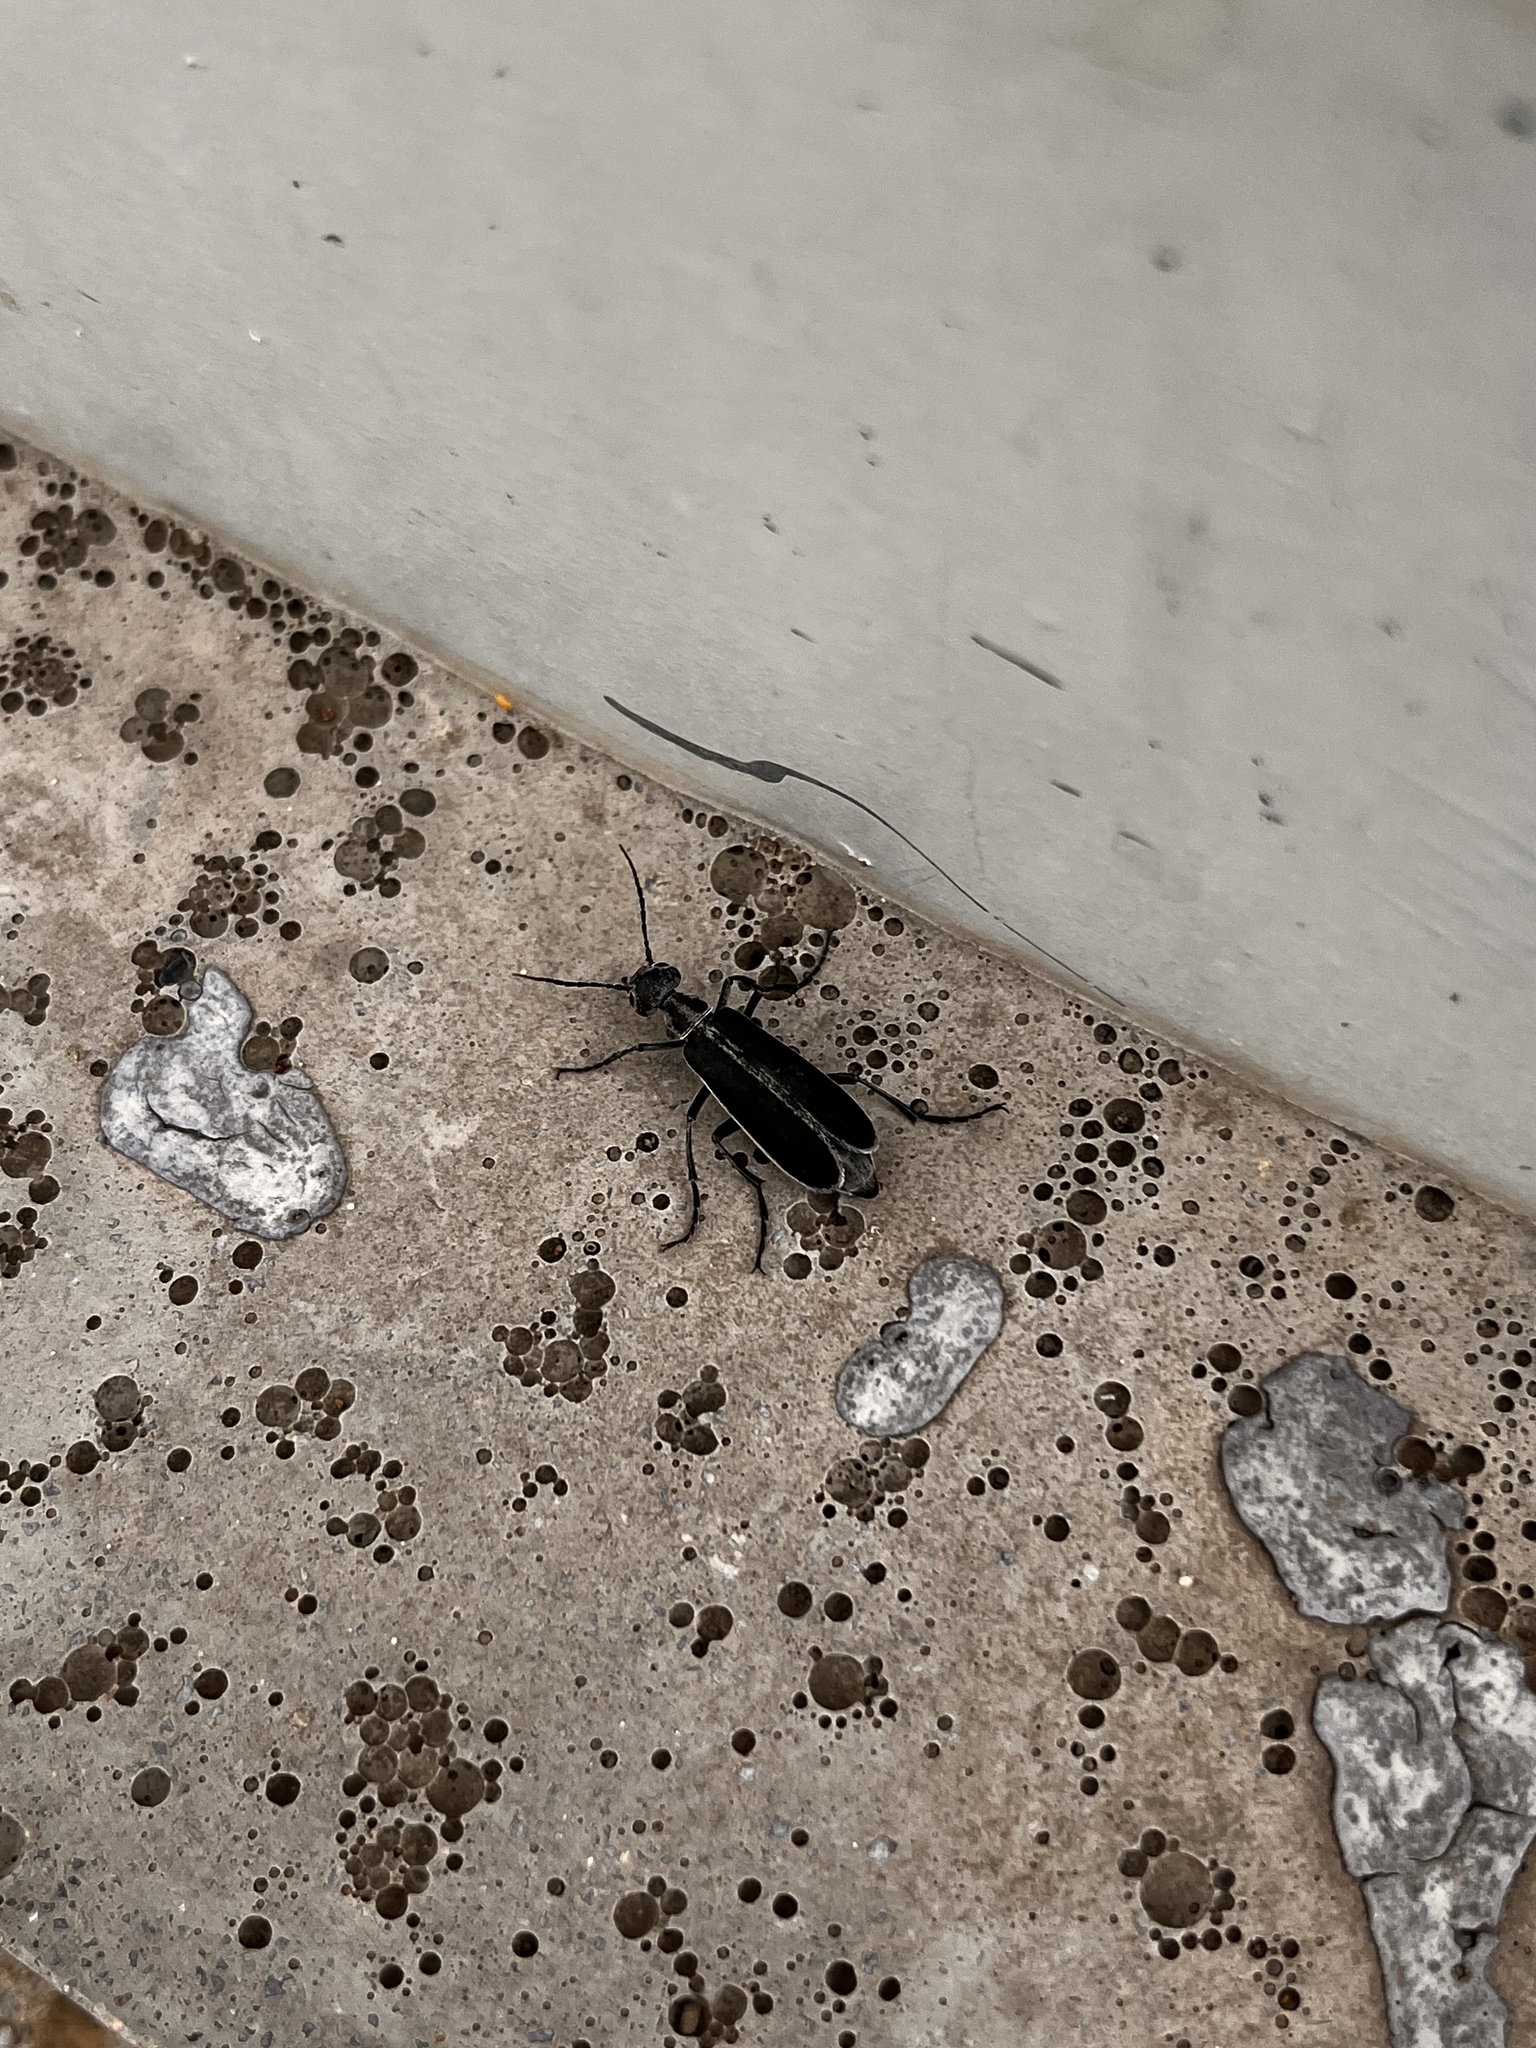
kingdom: Animalia
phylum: Arthropoda
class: Insecta
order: Coleoptera
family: Meloidae
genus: Epicauta
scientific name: Epicauta funebris
